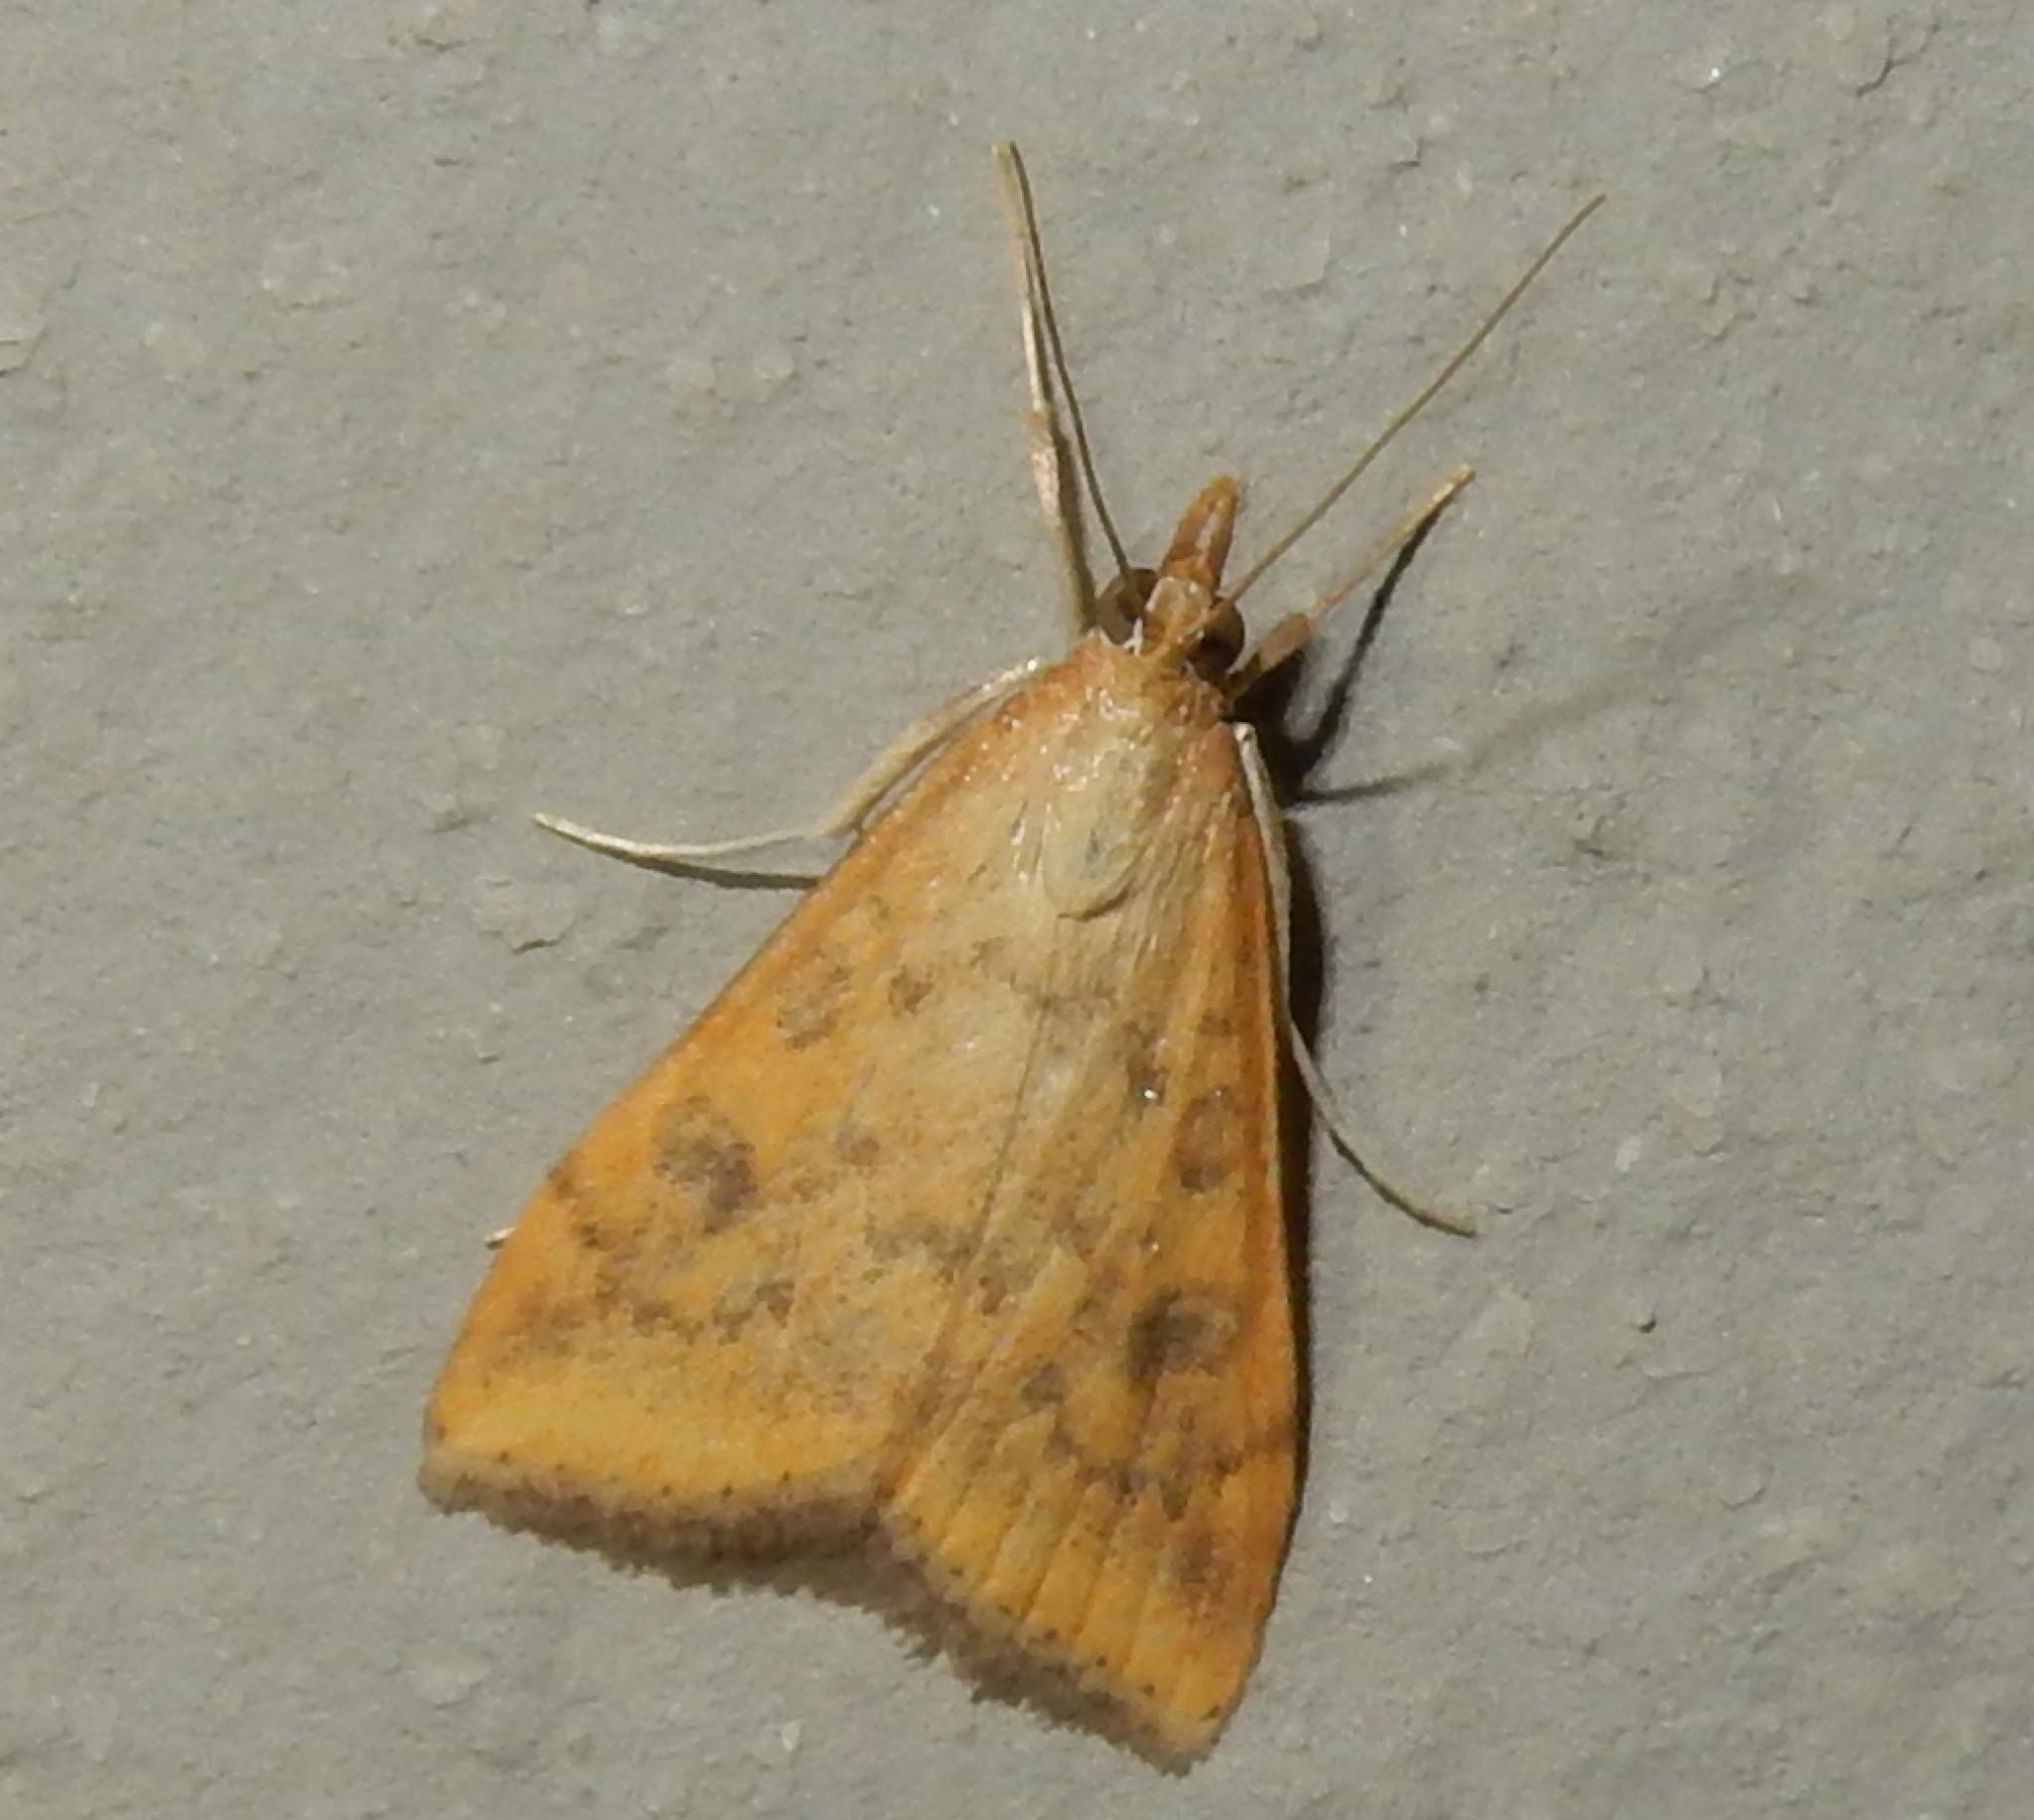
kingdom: Animalia
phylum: Arthropoda
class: Insecta
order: Lepidoptera
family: Crambidae
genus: Udea
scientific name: Udea ferrugalis
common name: Rusty dot
